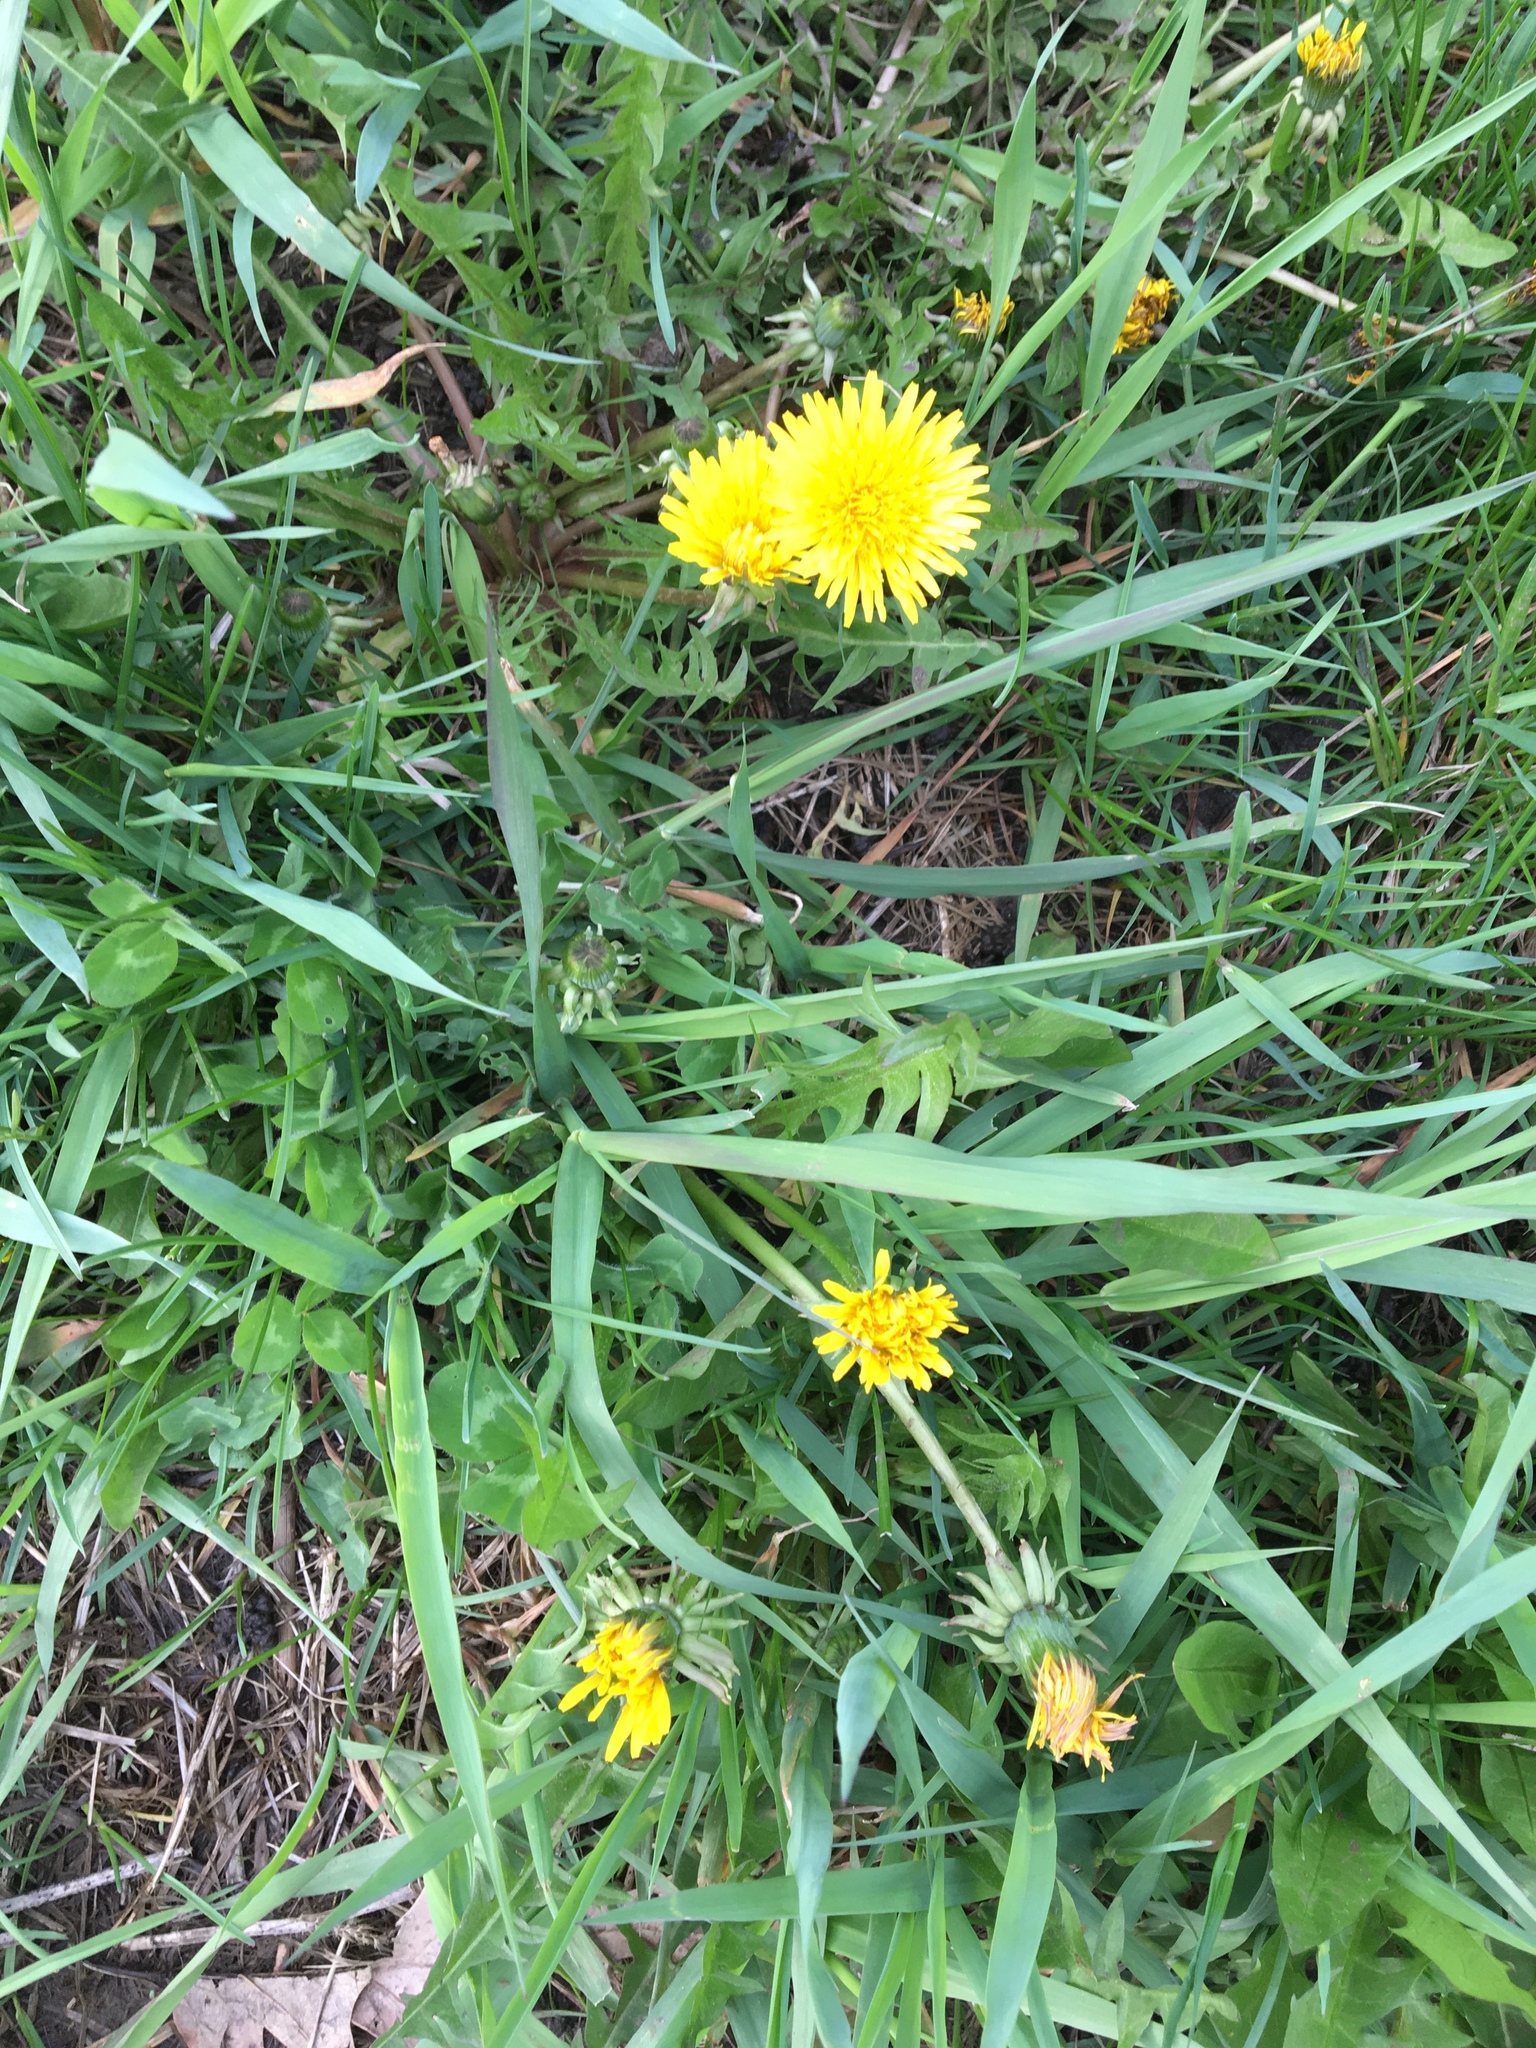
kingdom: Plantae
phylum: Tracheophyta
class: Magnoliopsida
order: Asterales
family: Asteraceae
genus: Taraxacum
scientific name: Taraxacum officinale
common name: Common dandelion
